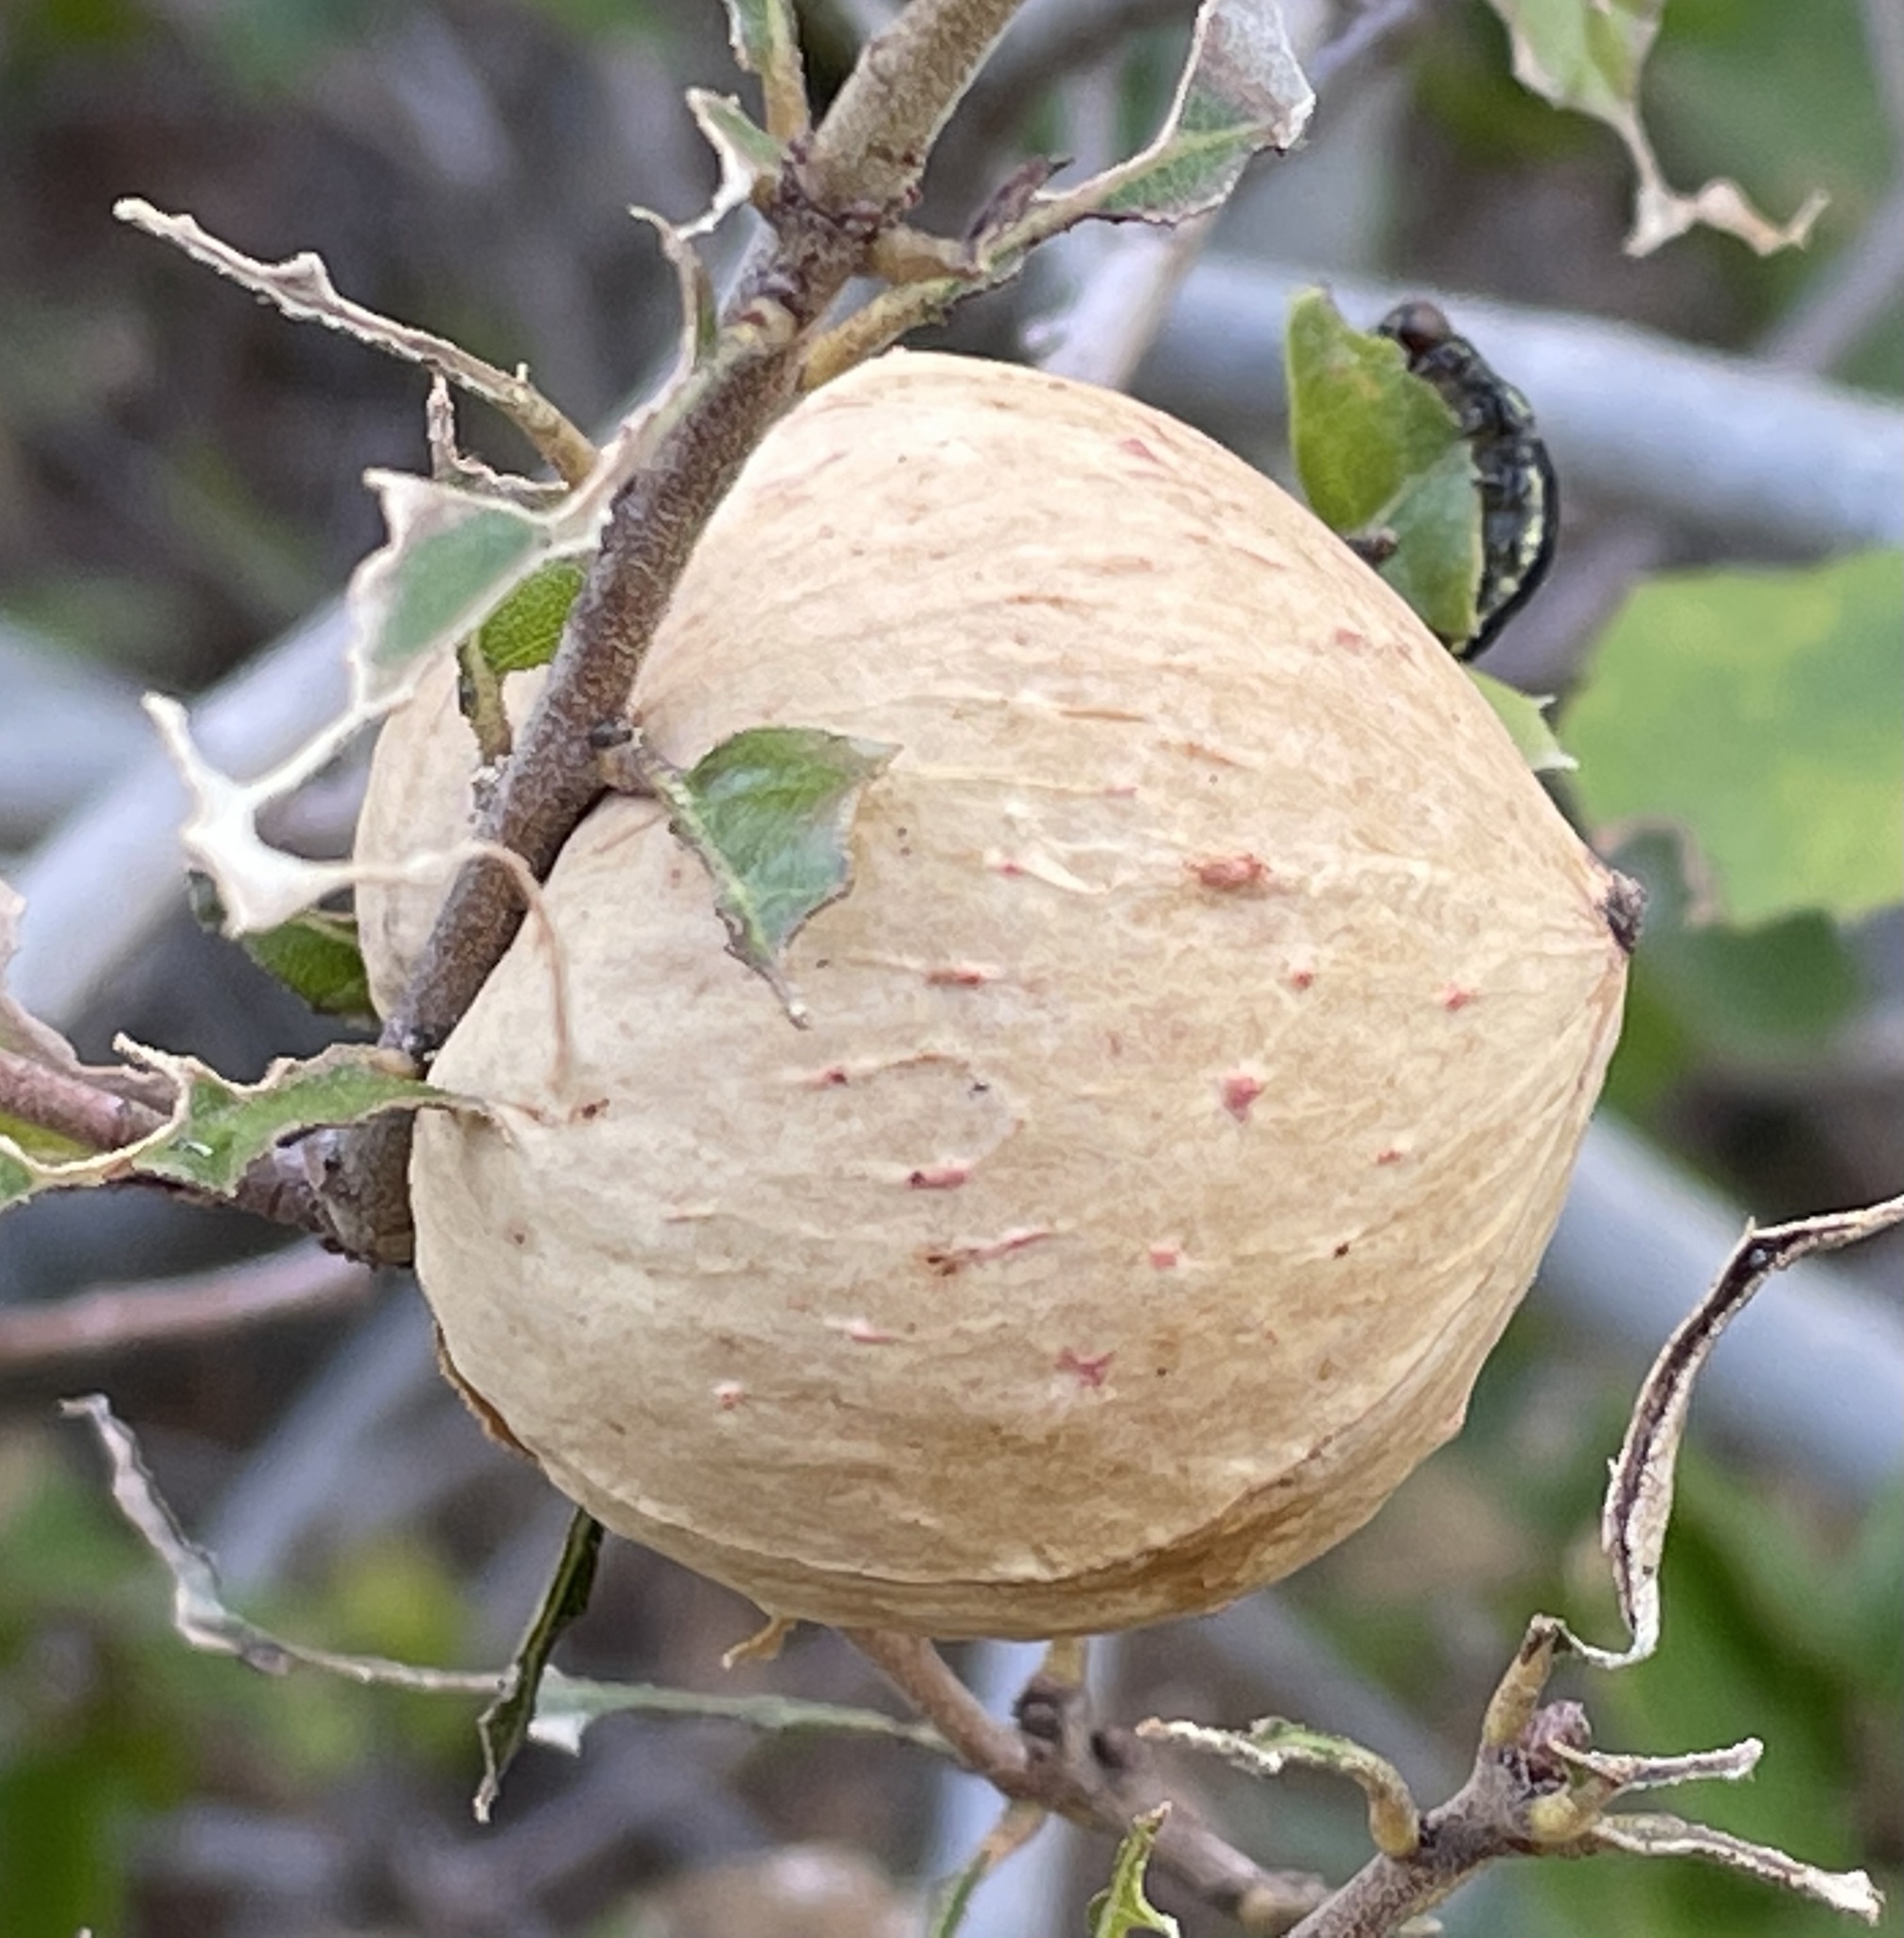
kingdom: Animalia
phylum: Arthropoda
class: Insecta
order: Hymenoptera
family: Cynipidae
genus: Amphibolips
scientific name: Amphibolips quercuspomiformis
